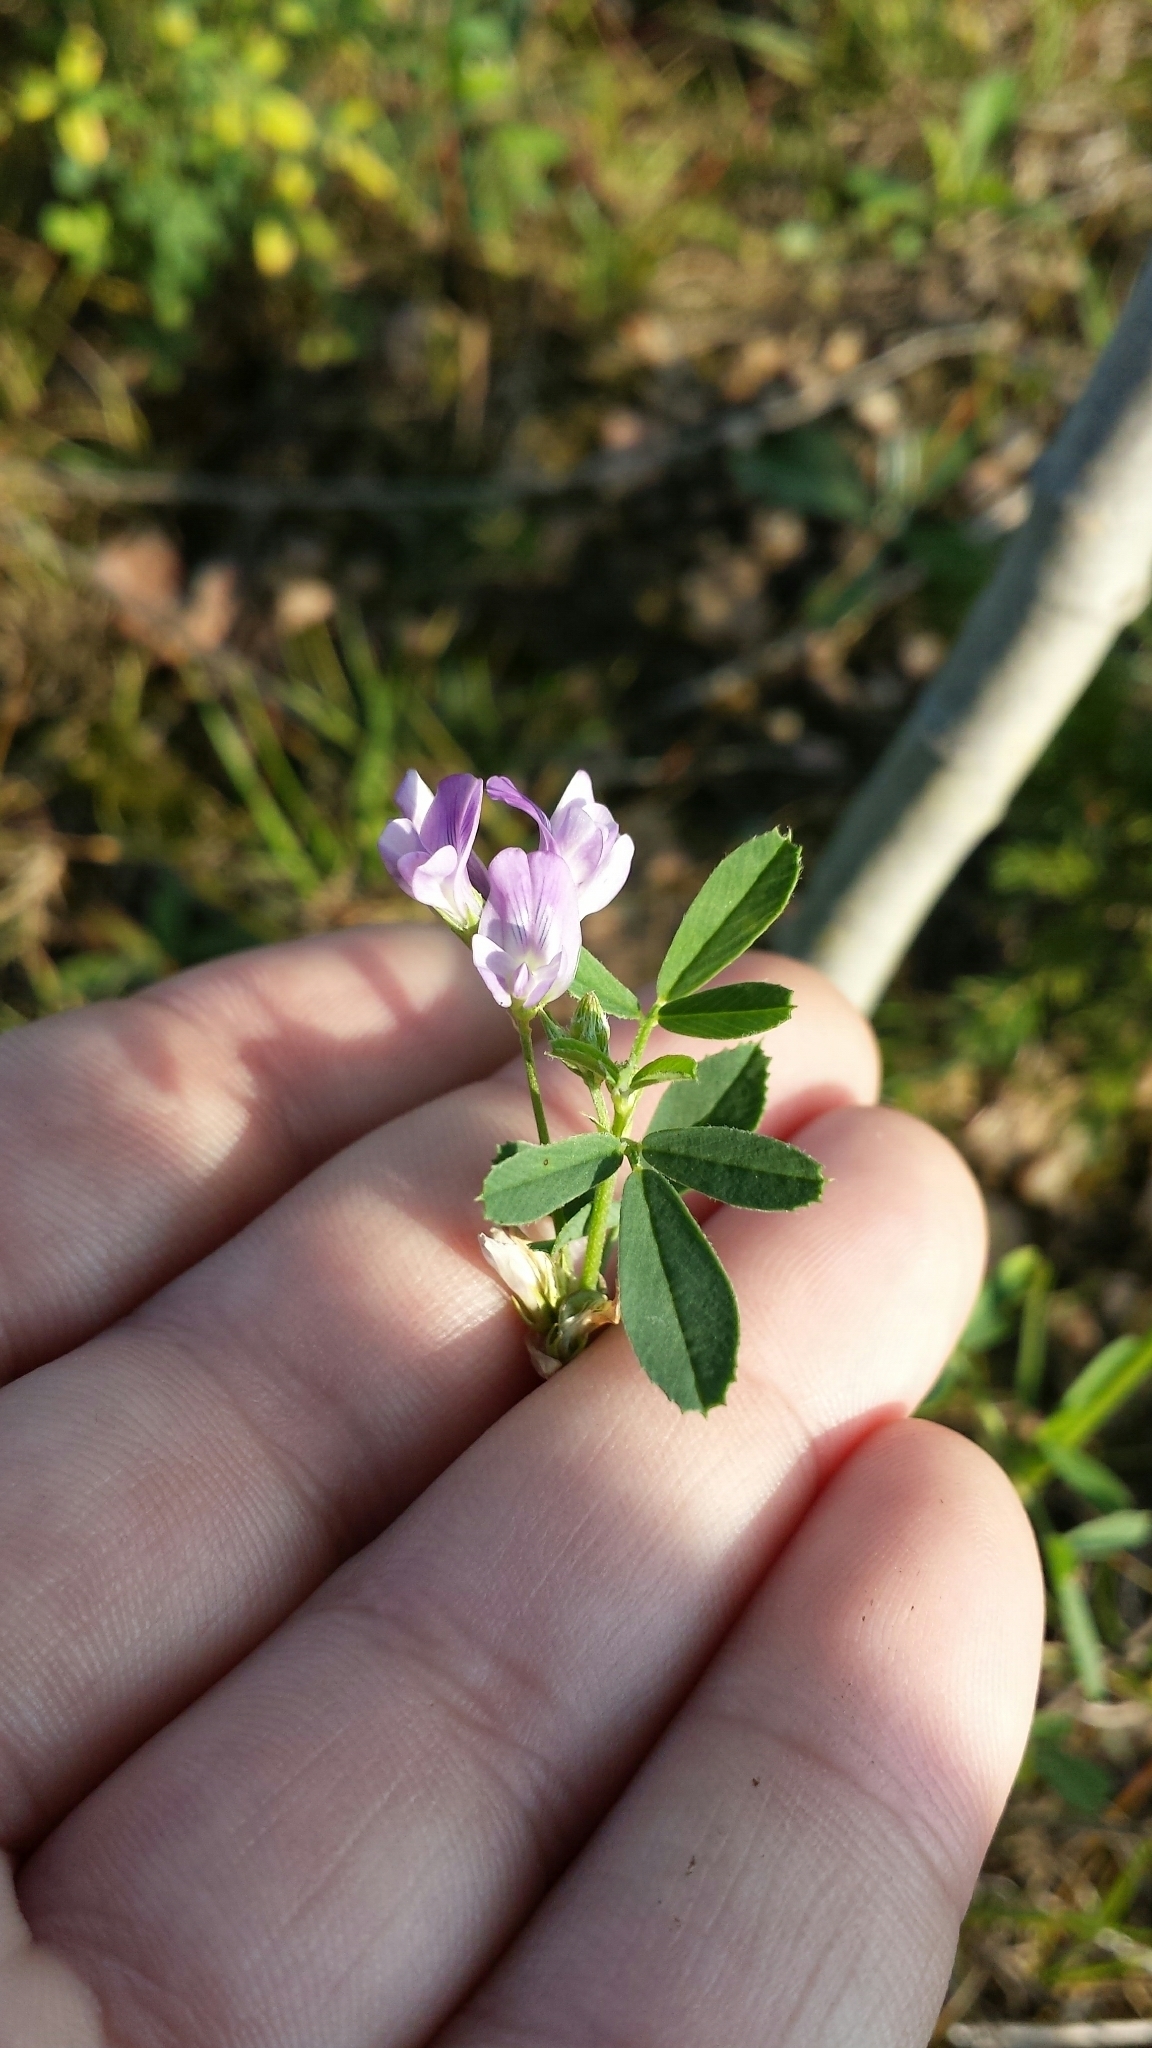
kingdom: Plantae
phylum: Tracheophyta
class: Magnoliopsida
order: Fabales
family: Fabaceae
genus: Medicago
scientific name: Medicago sativa
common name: Alfalfa
